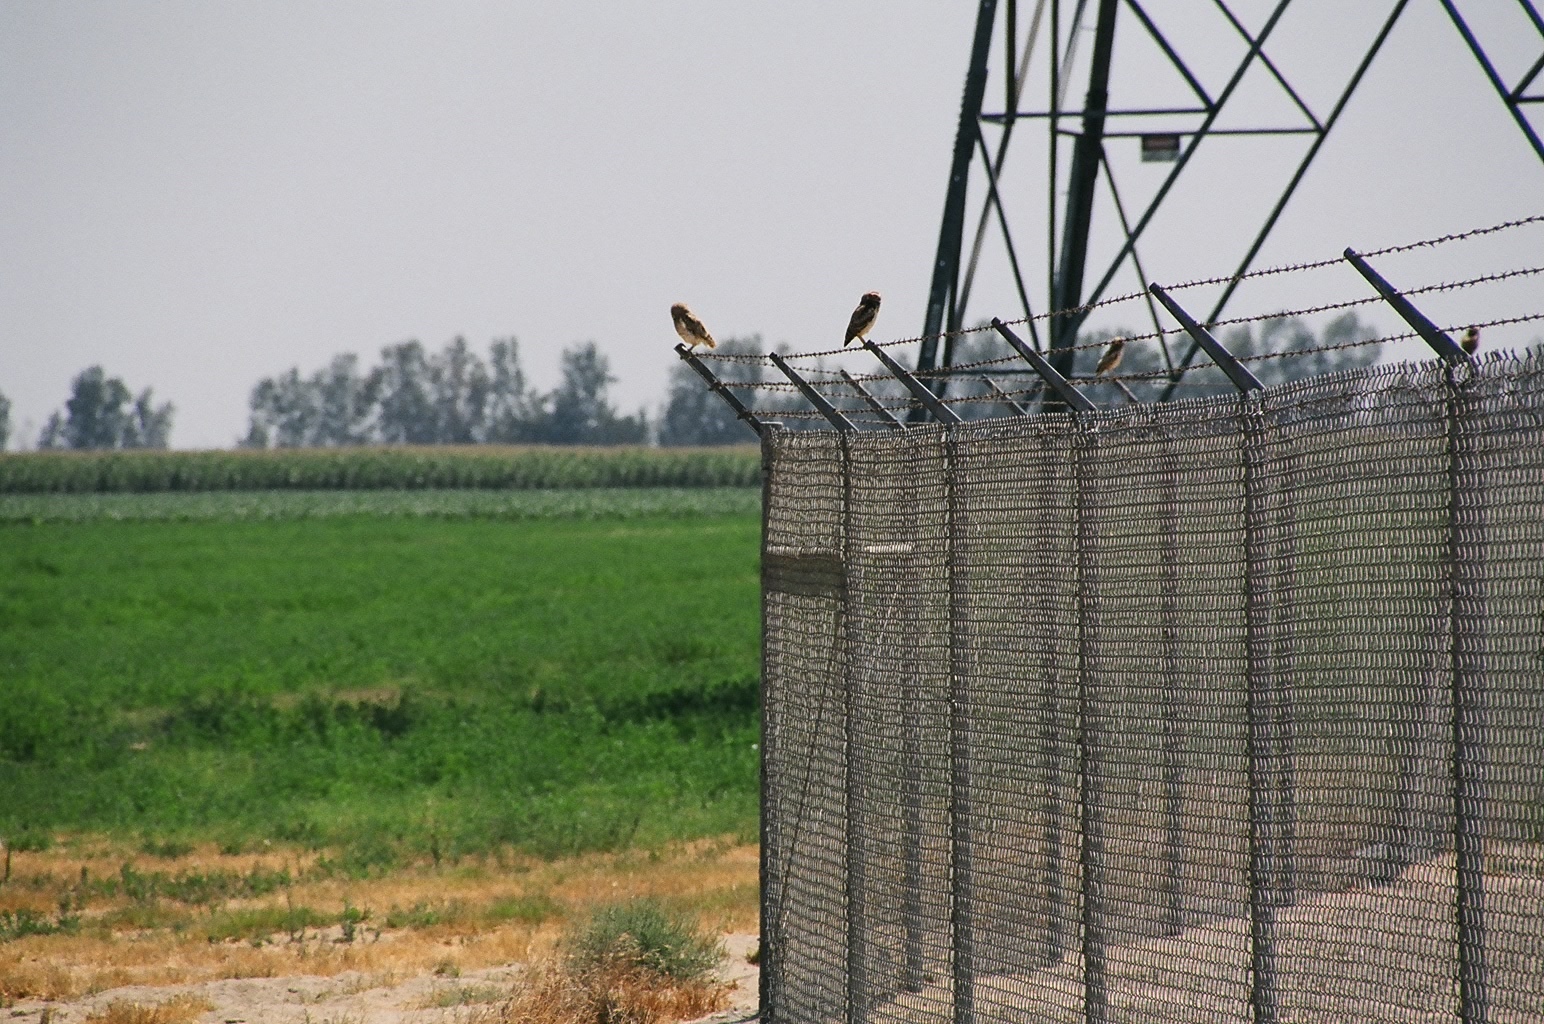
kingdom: Animalia
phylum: Chordata
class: Aves
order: Strigiformes
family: Strigidae
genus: Athene
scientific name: Athene cunicularia
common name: Burrowing owl
